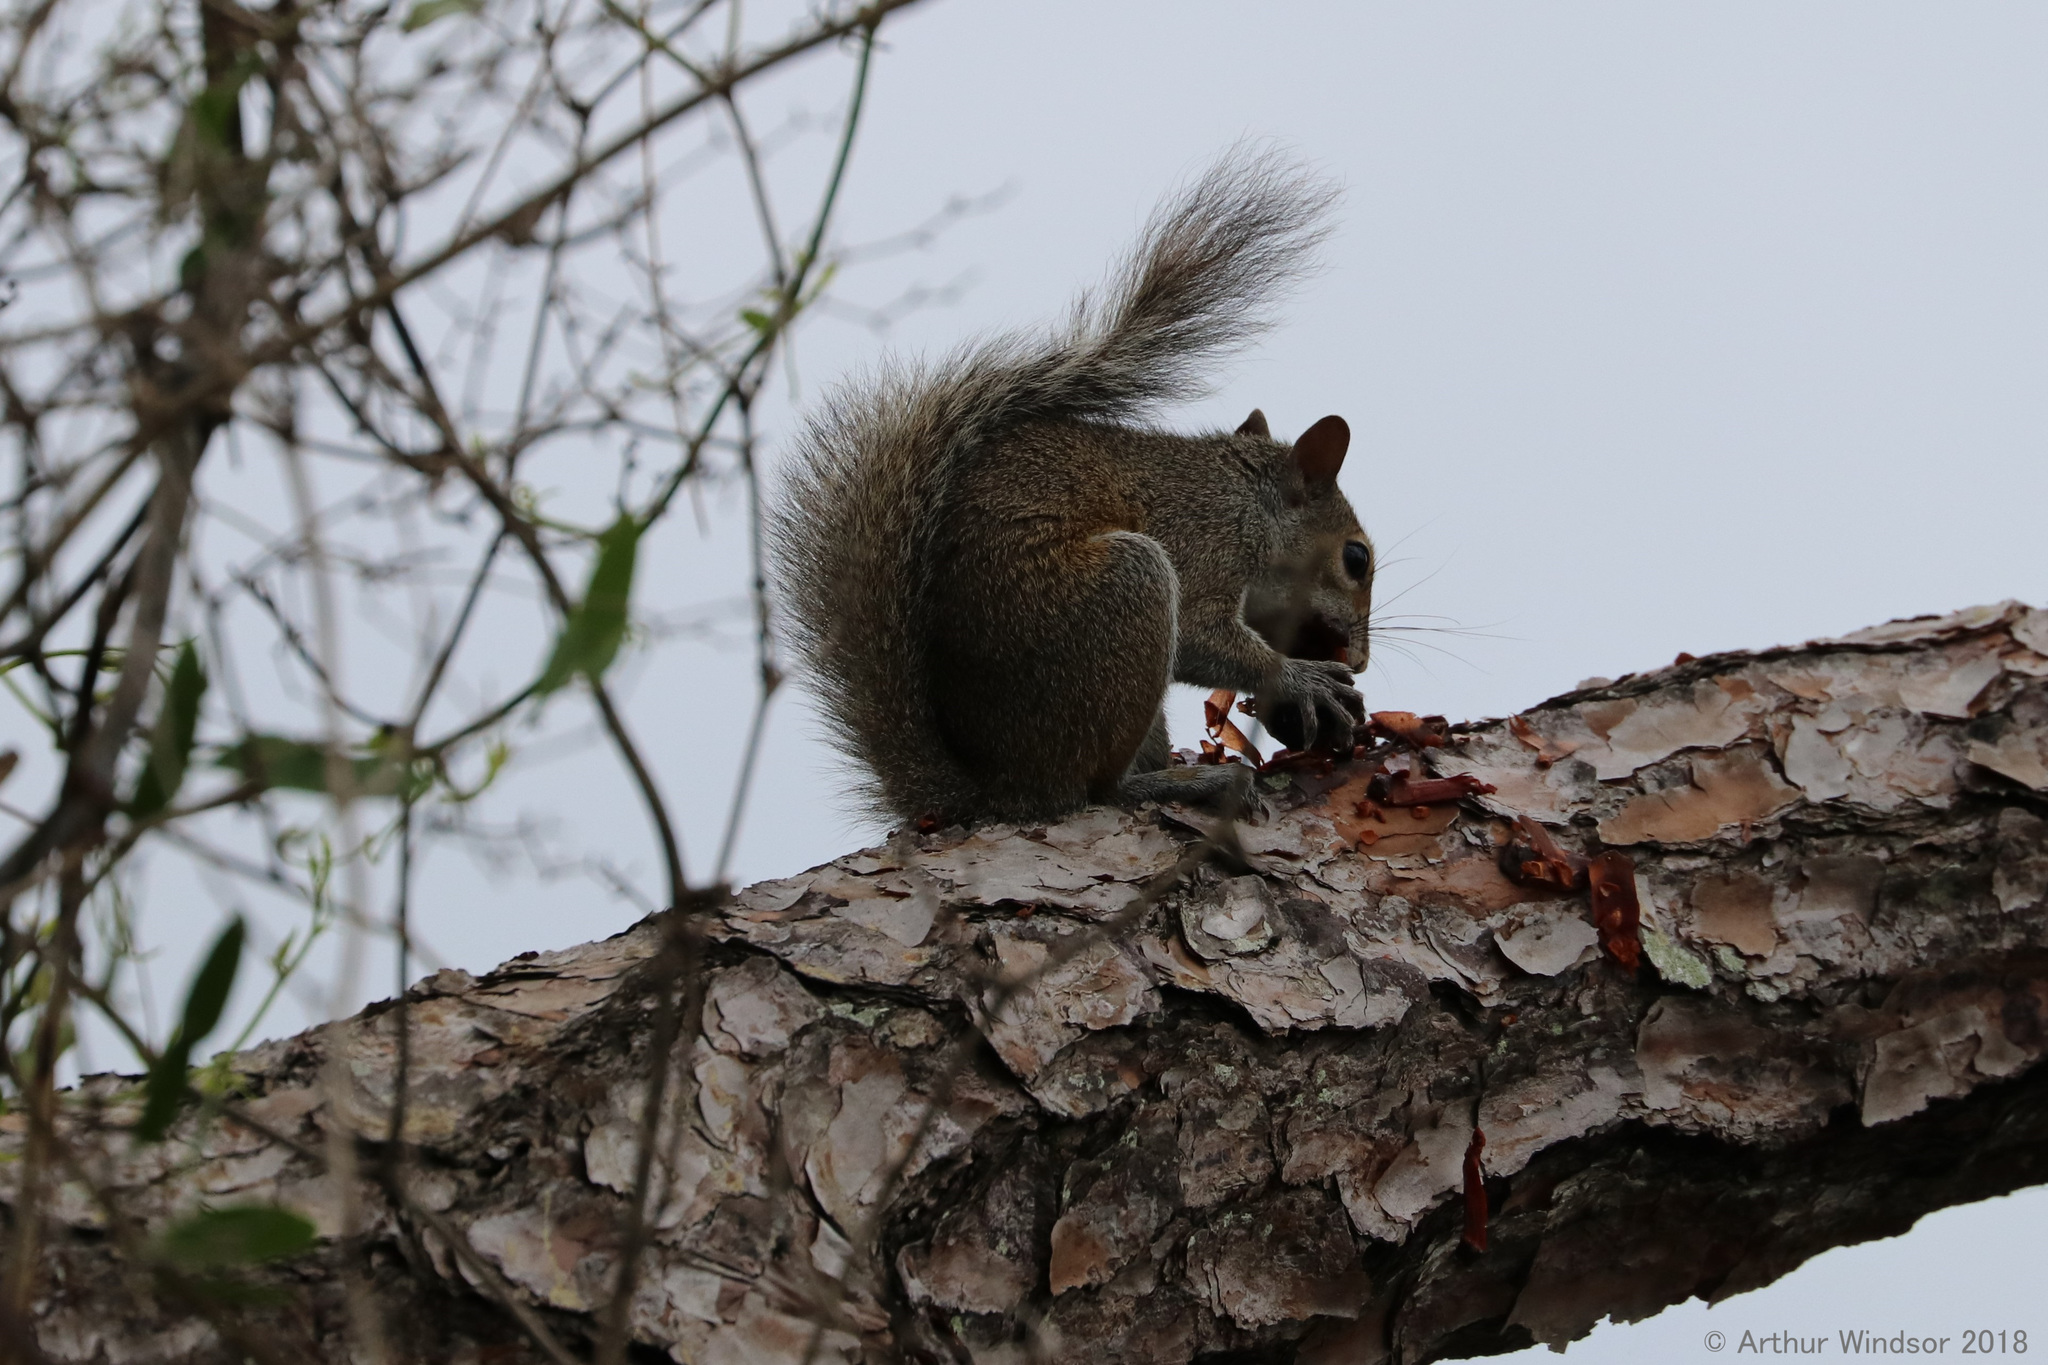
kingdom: Animalia
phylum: Chordata
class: Mammalia
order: Rodentia
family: Sciuridae
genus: Sciurus
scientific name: Sciurus carolinensis
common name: Eastern gray squirrel
